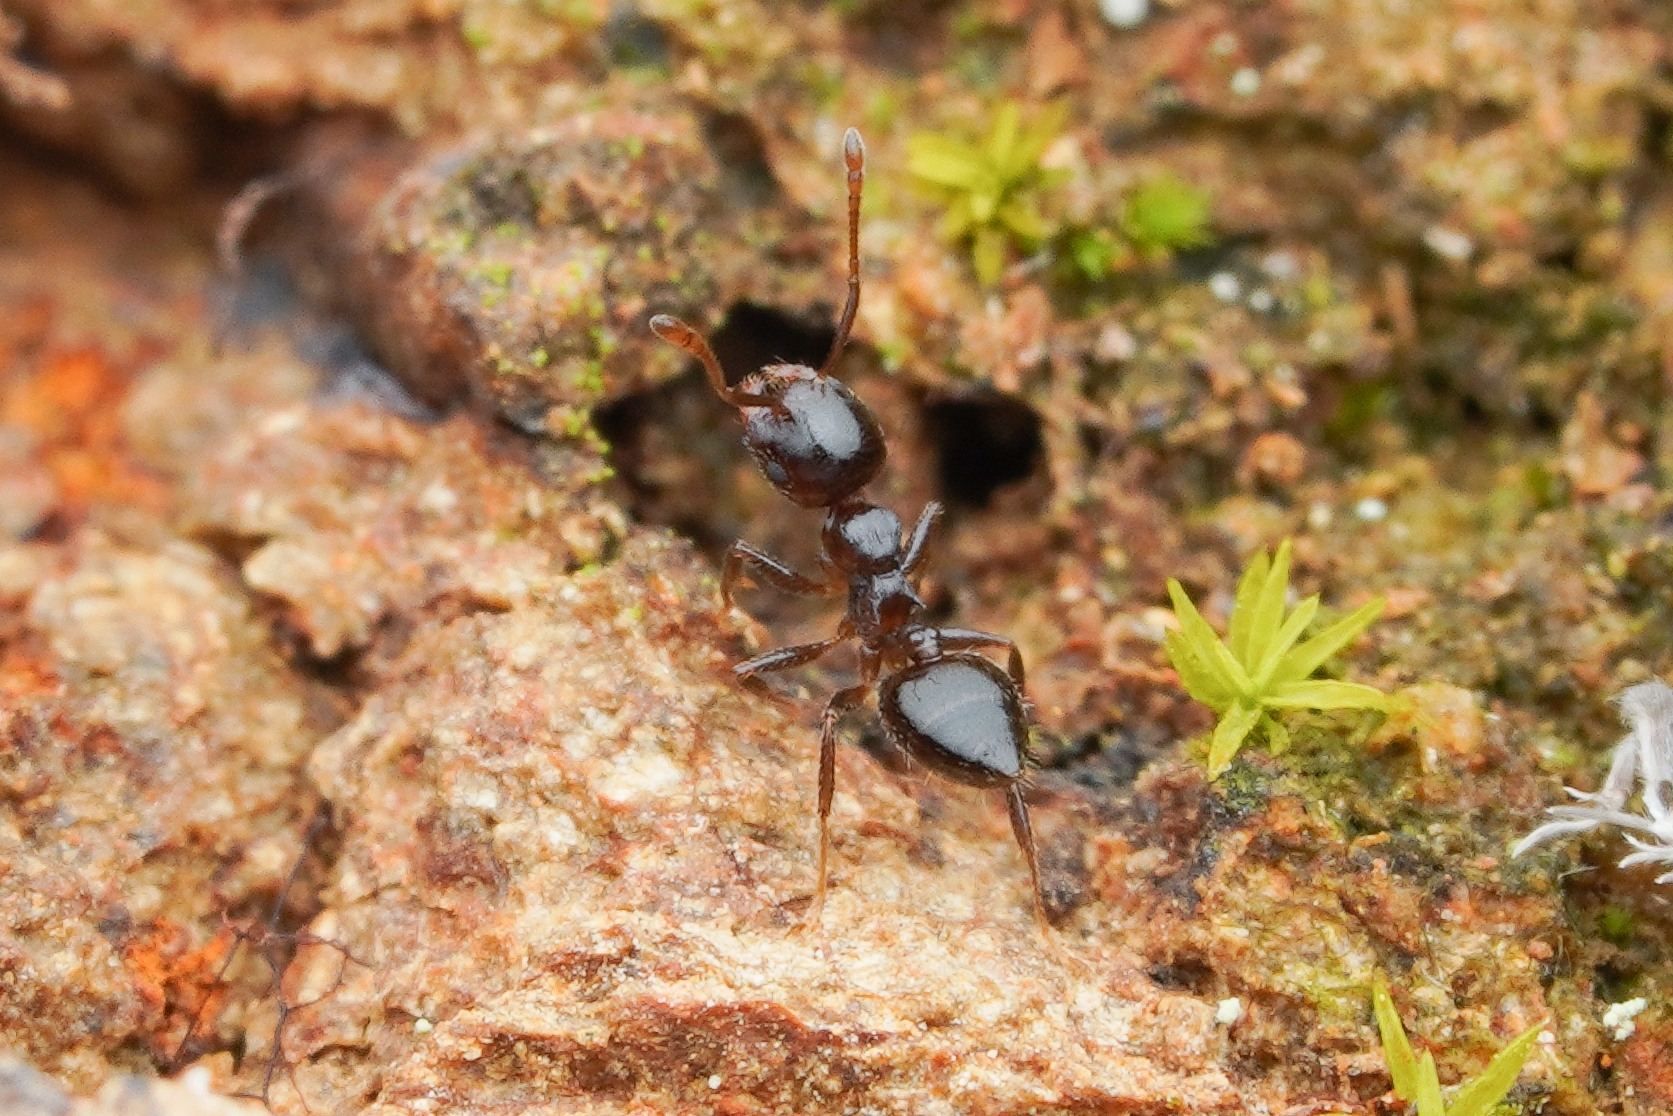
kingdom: Animalia
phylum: Arthropoda
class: Insecta
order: Hymenoptera
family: Formicidae
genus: Crematogaster
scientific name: Crematogaster teranishii
